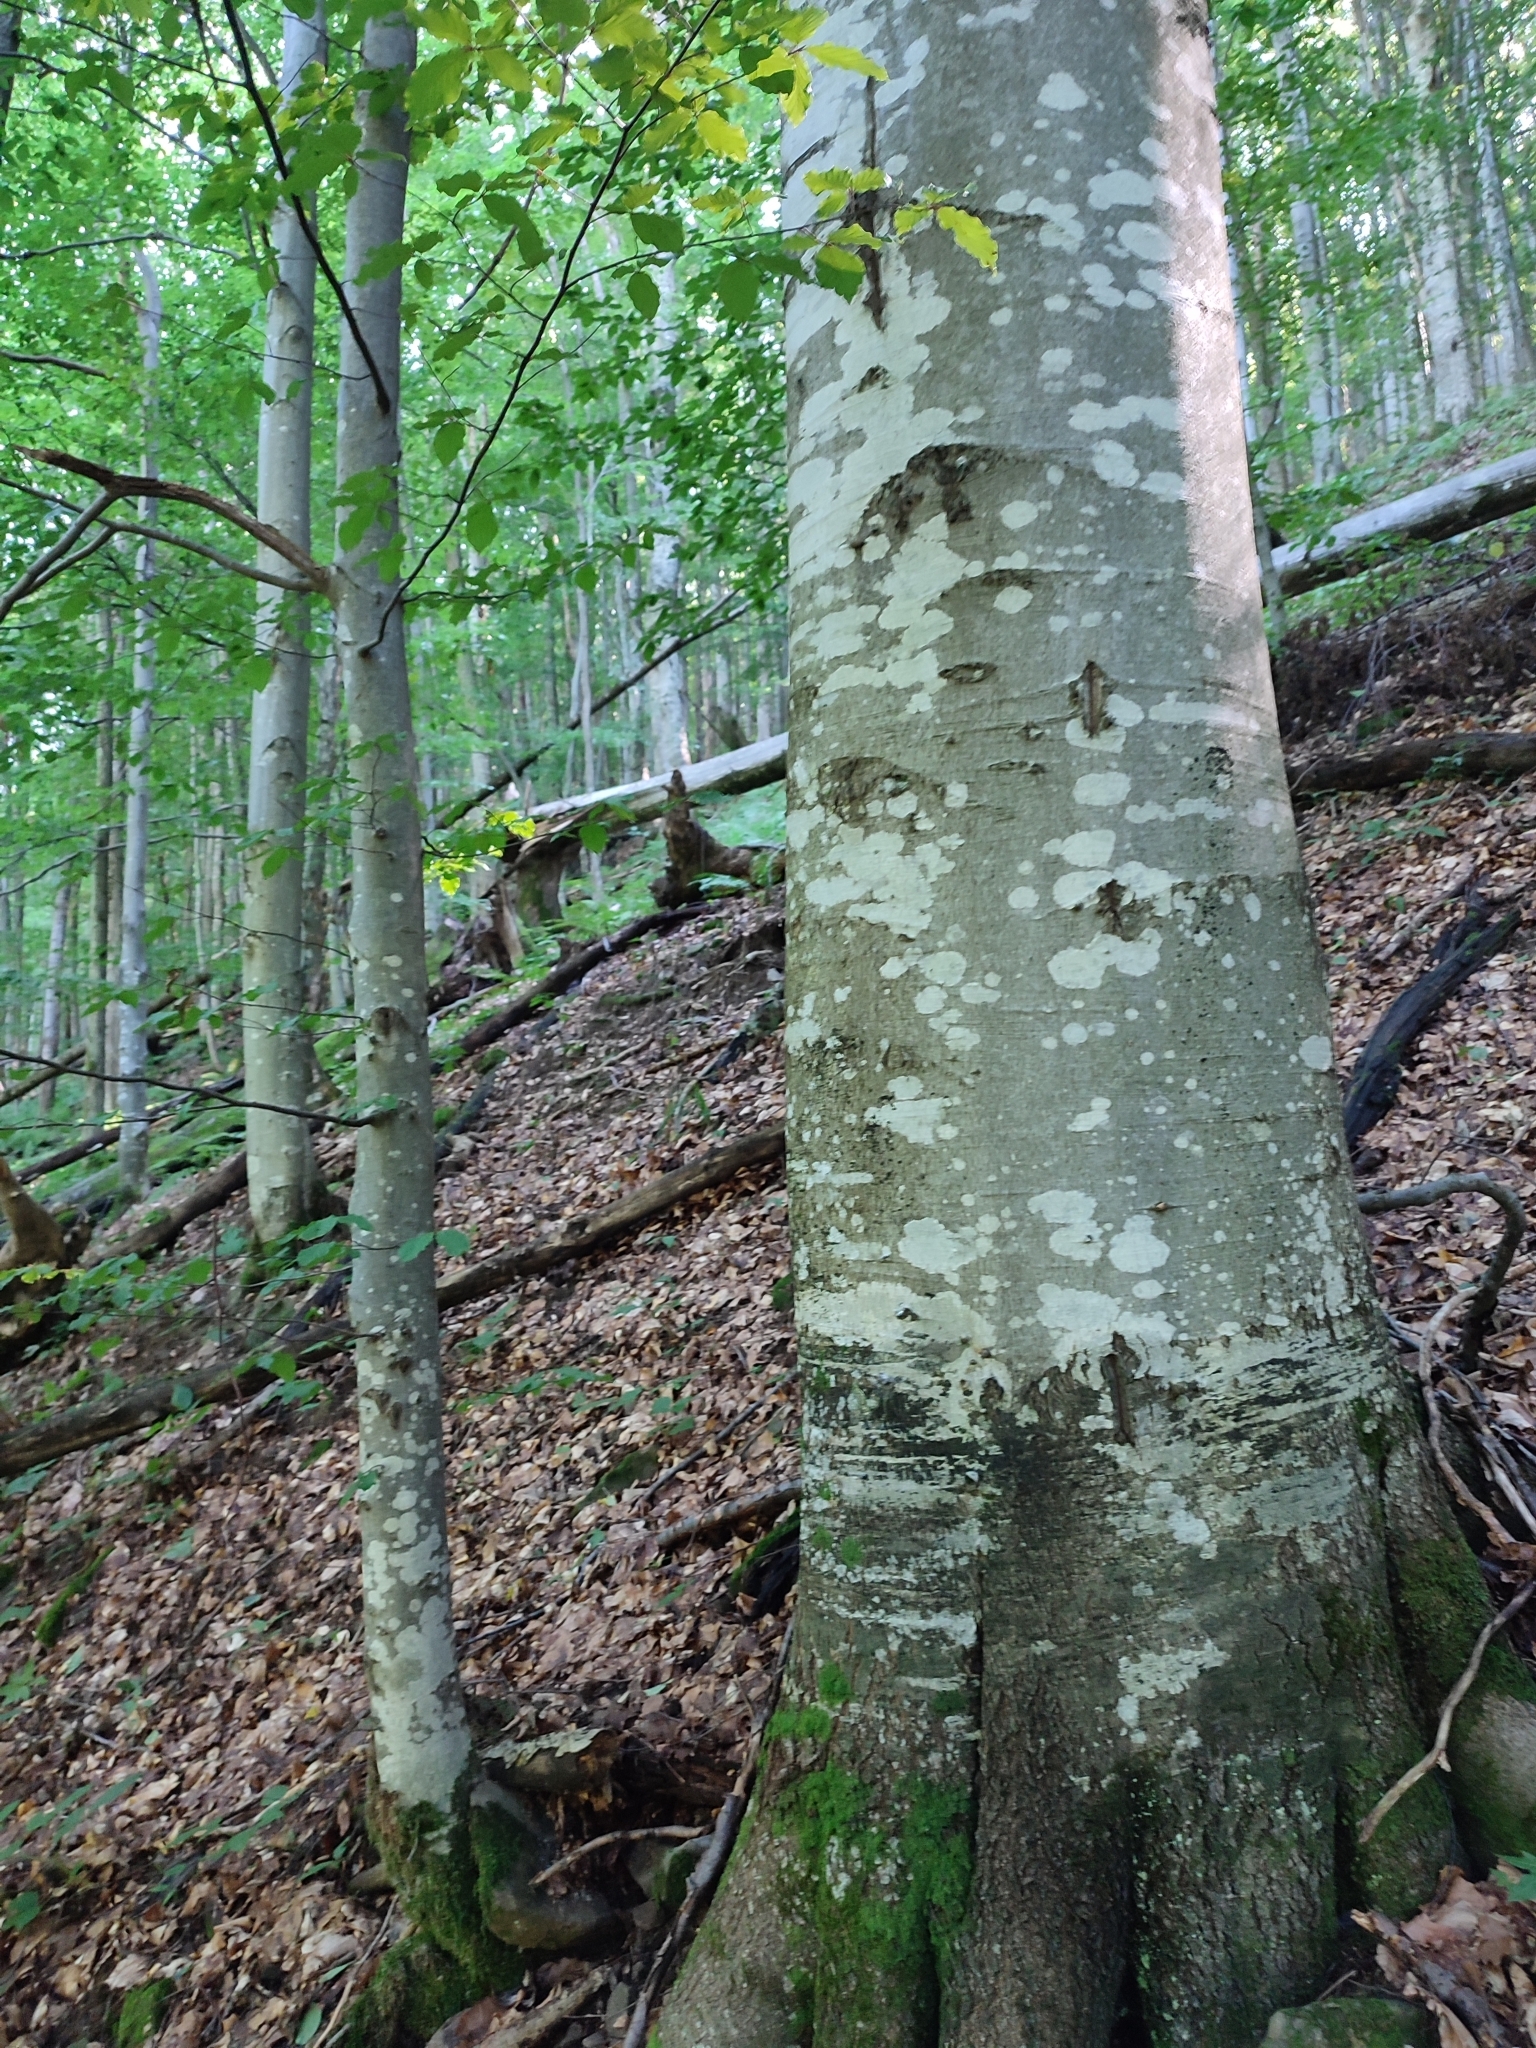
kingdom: Plantae
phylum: Tracheophyta
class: Magnoliopsida
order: Fagales
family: Fagaceae
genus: Fagus
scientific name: Fagus sylvatica
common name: Beech
